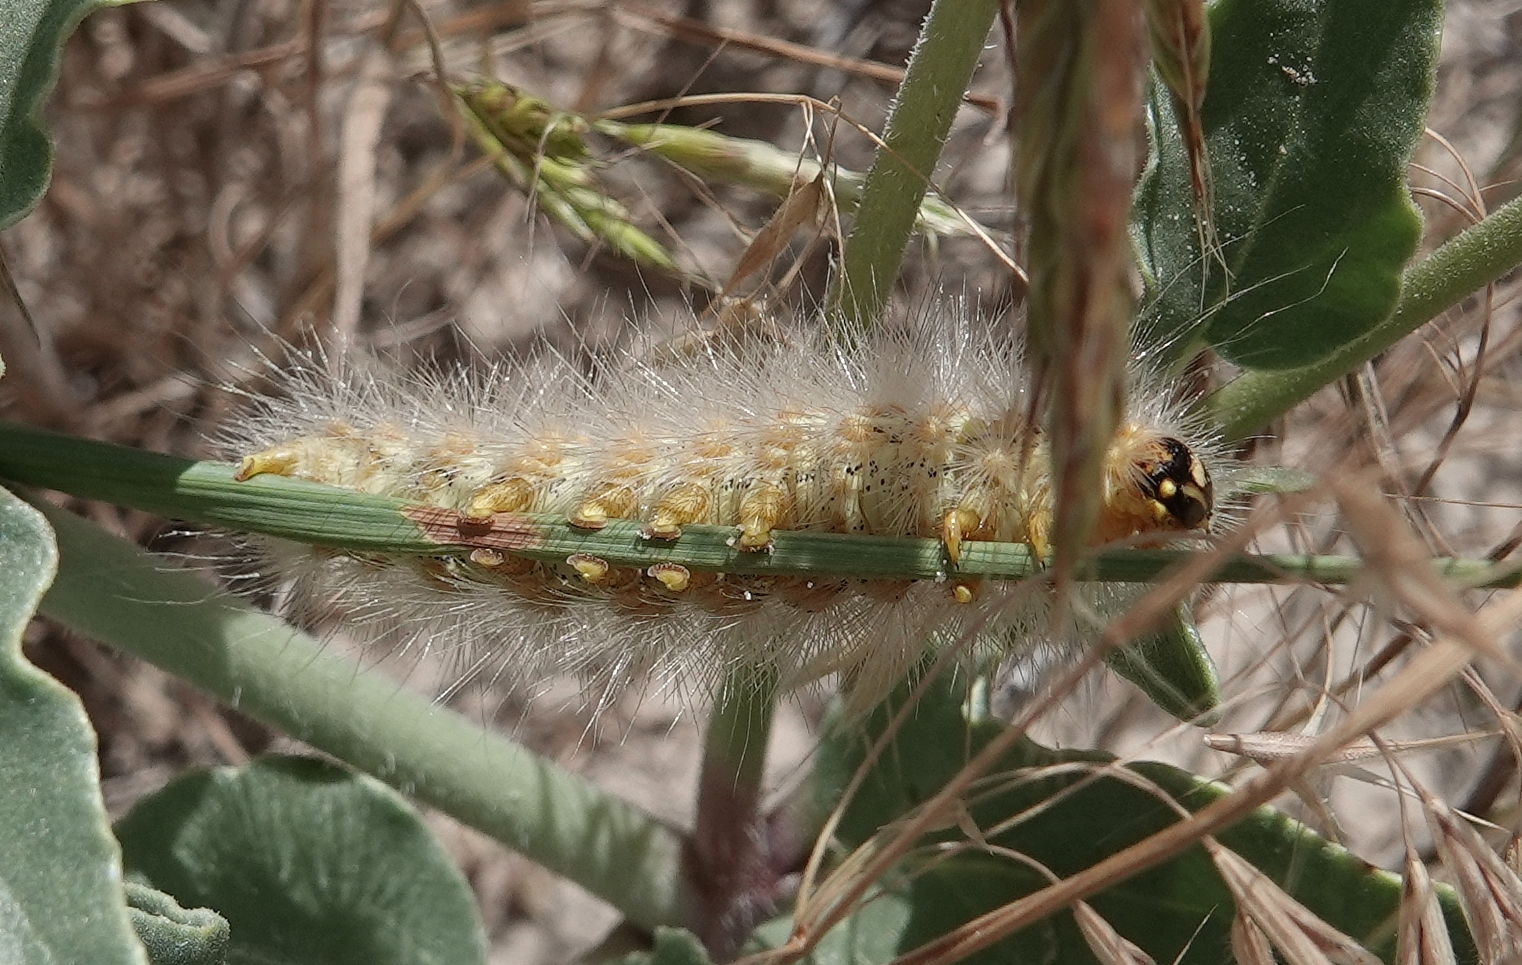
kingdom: Animalia
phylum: Arthropoda
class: Insecta
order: Lepidoptera
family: Erebidae
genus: Estigmene
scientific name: Estigmene
